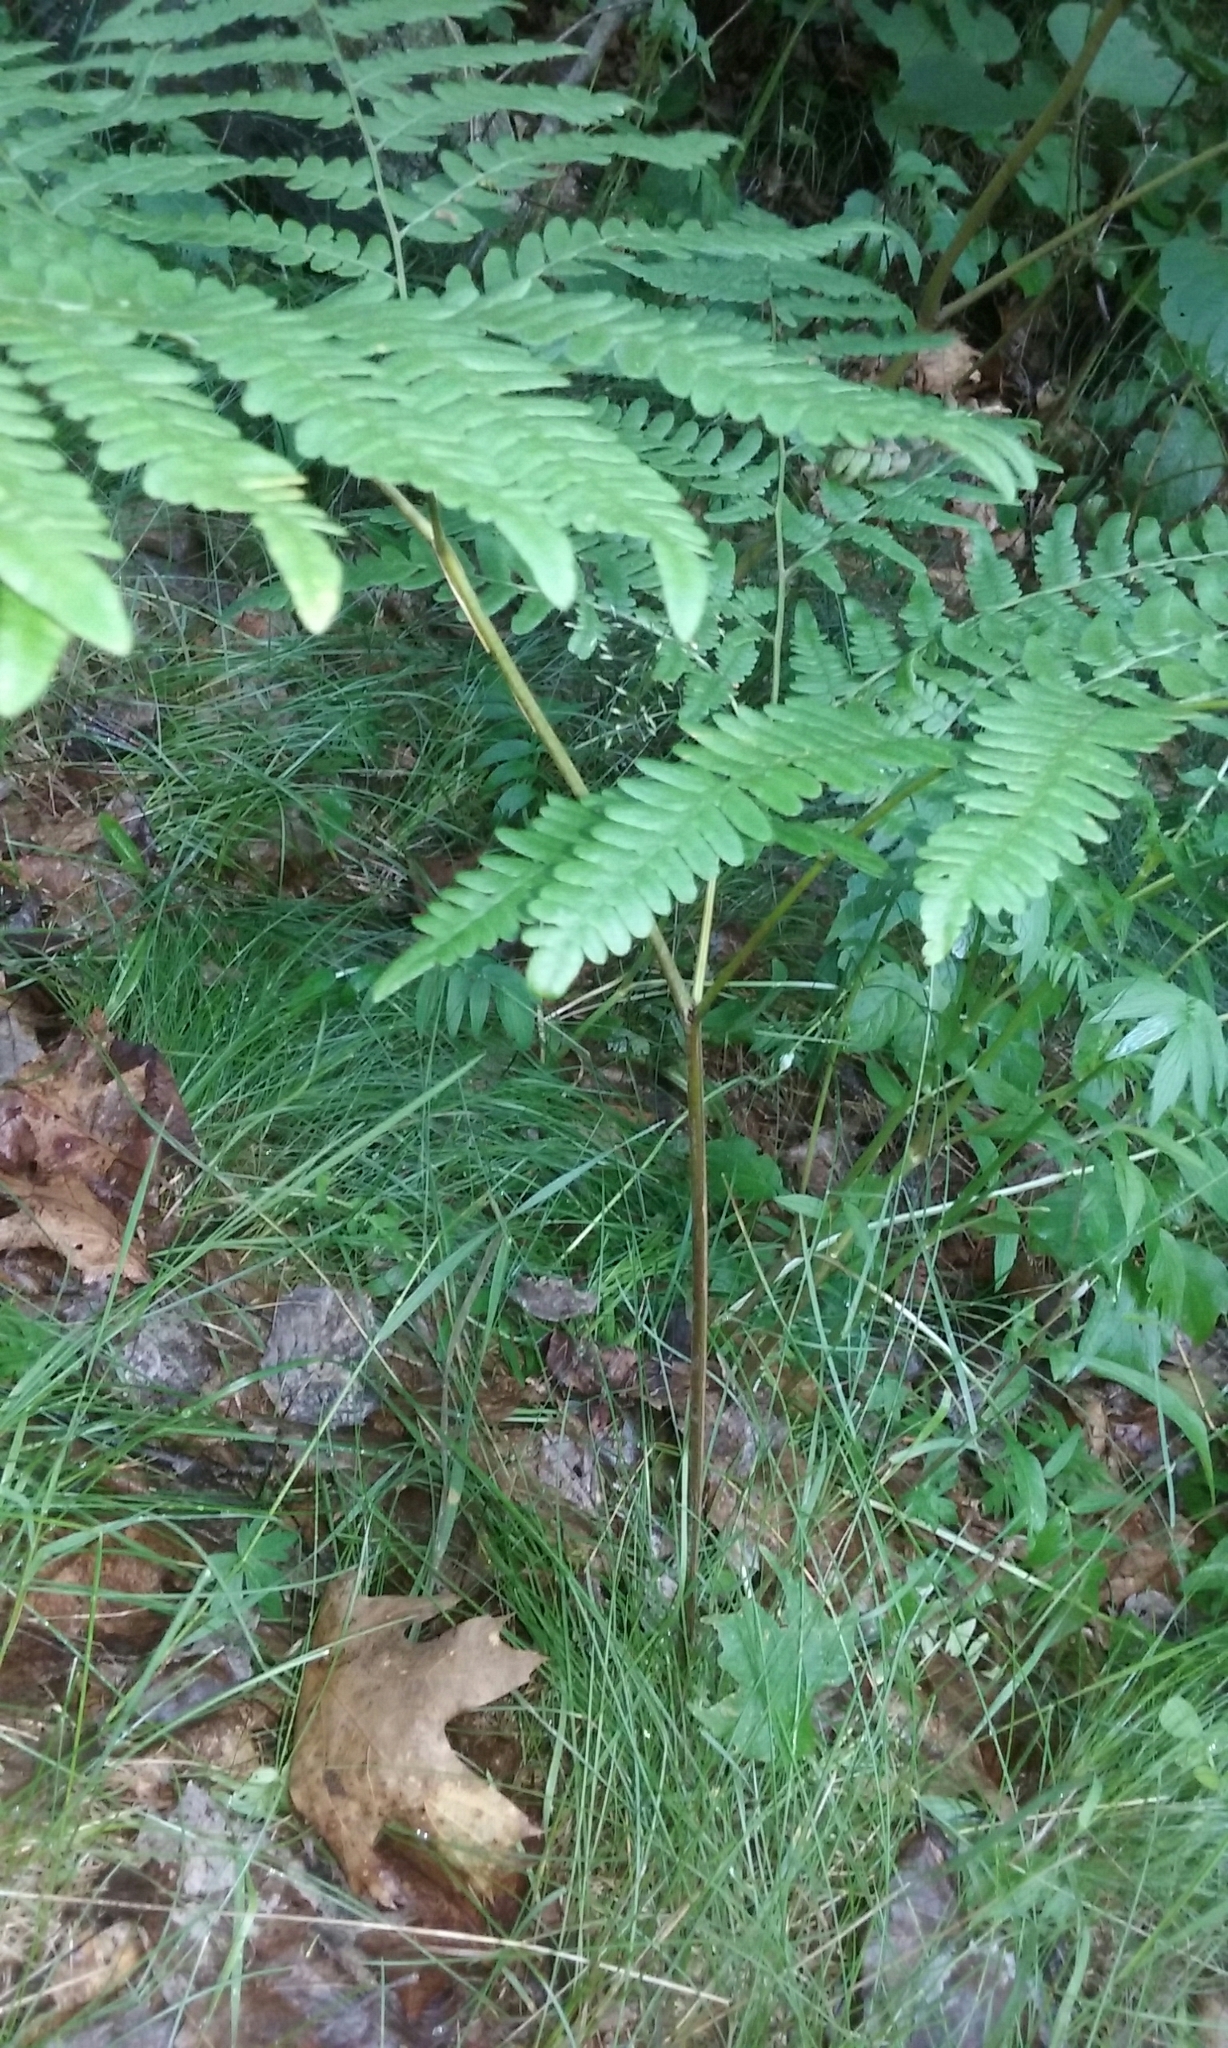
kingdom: Plantae
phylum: Tracheophyta
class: Polypodiopsida
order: Polypodiales
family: Dennstaedtiaceae
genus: Pteridium
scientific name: Pteridium aquilinum
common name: Bracken
